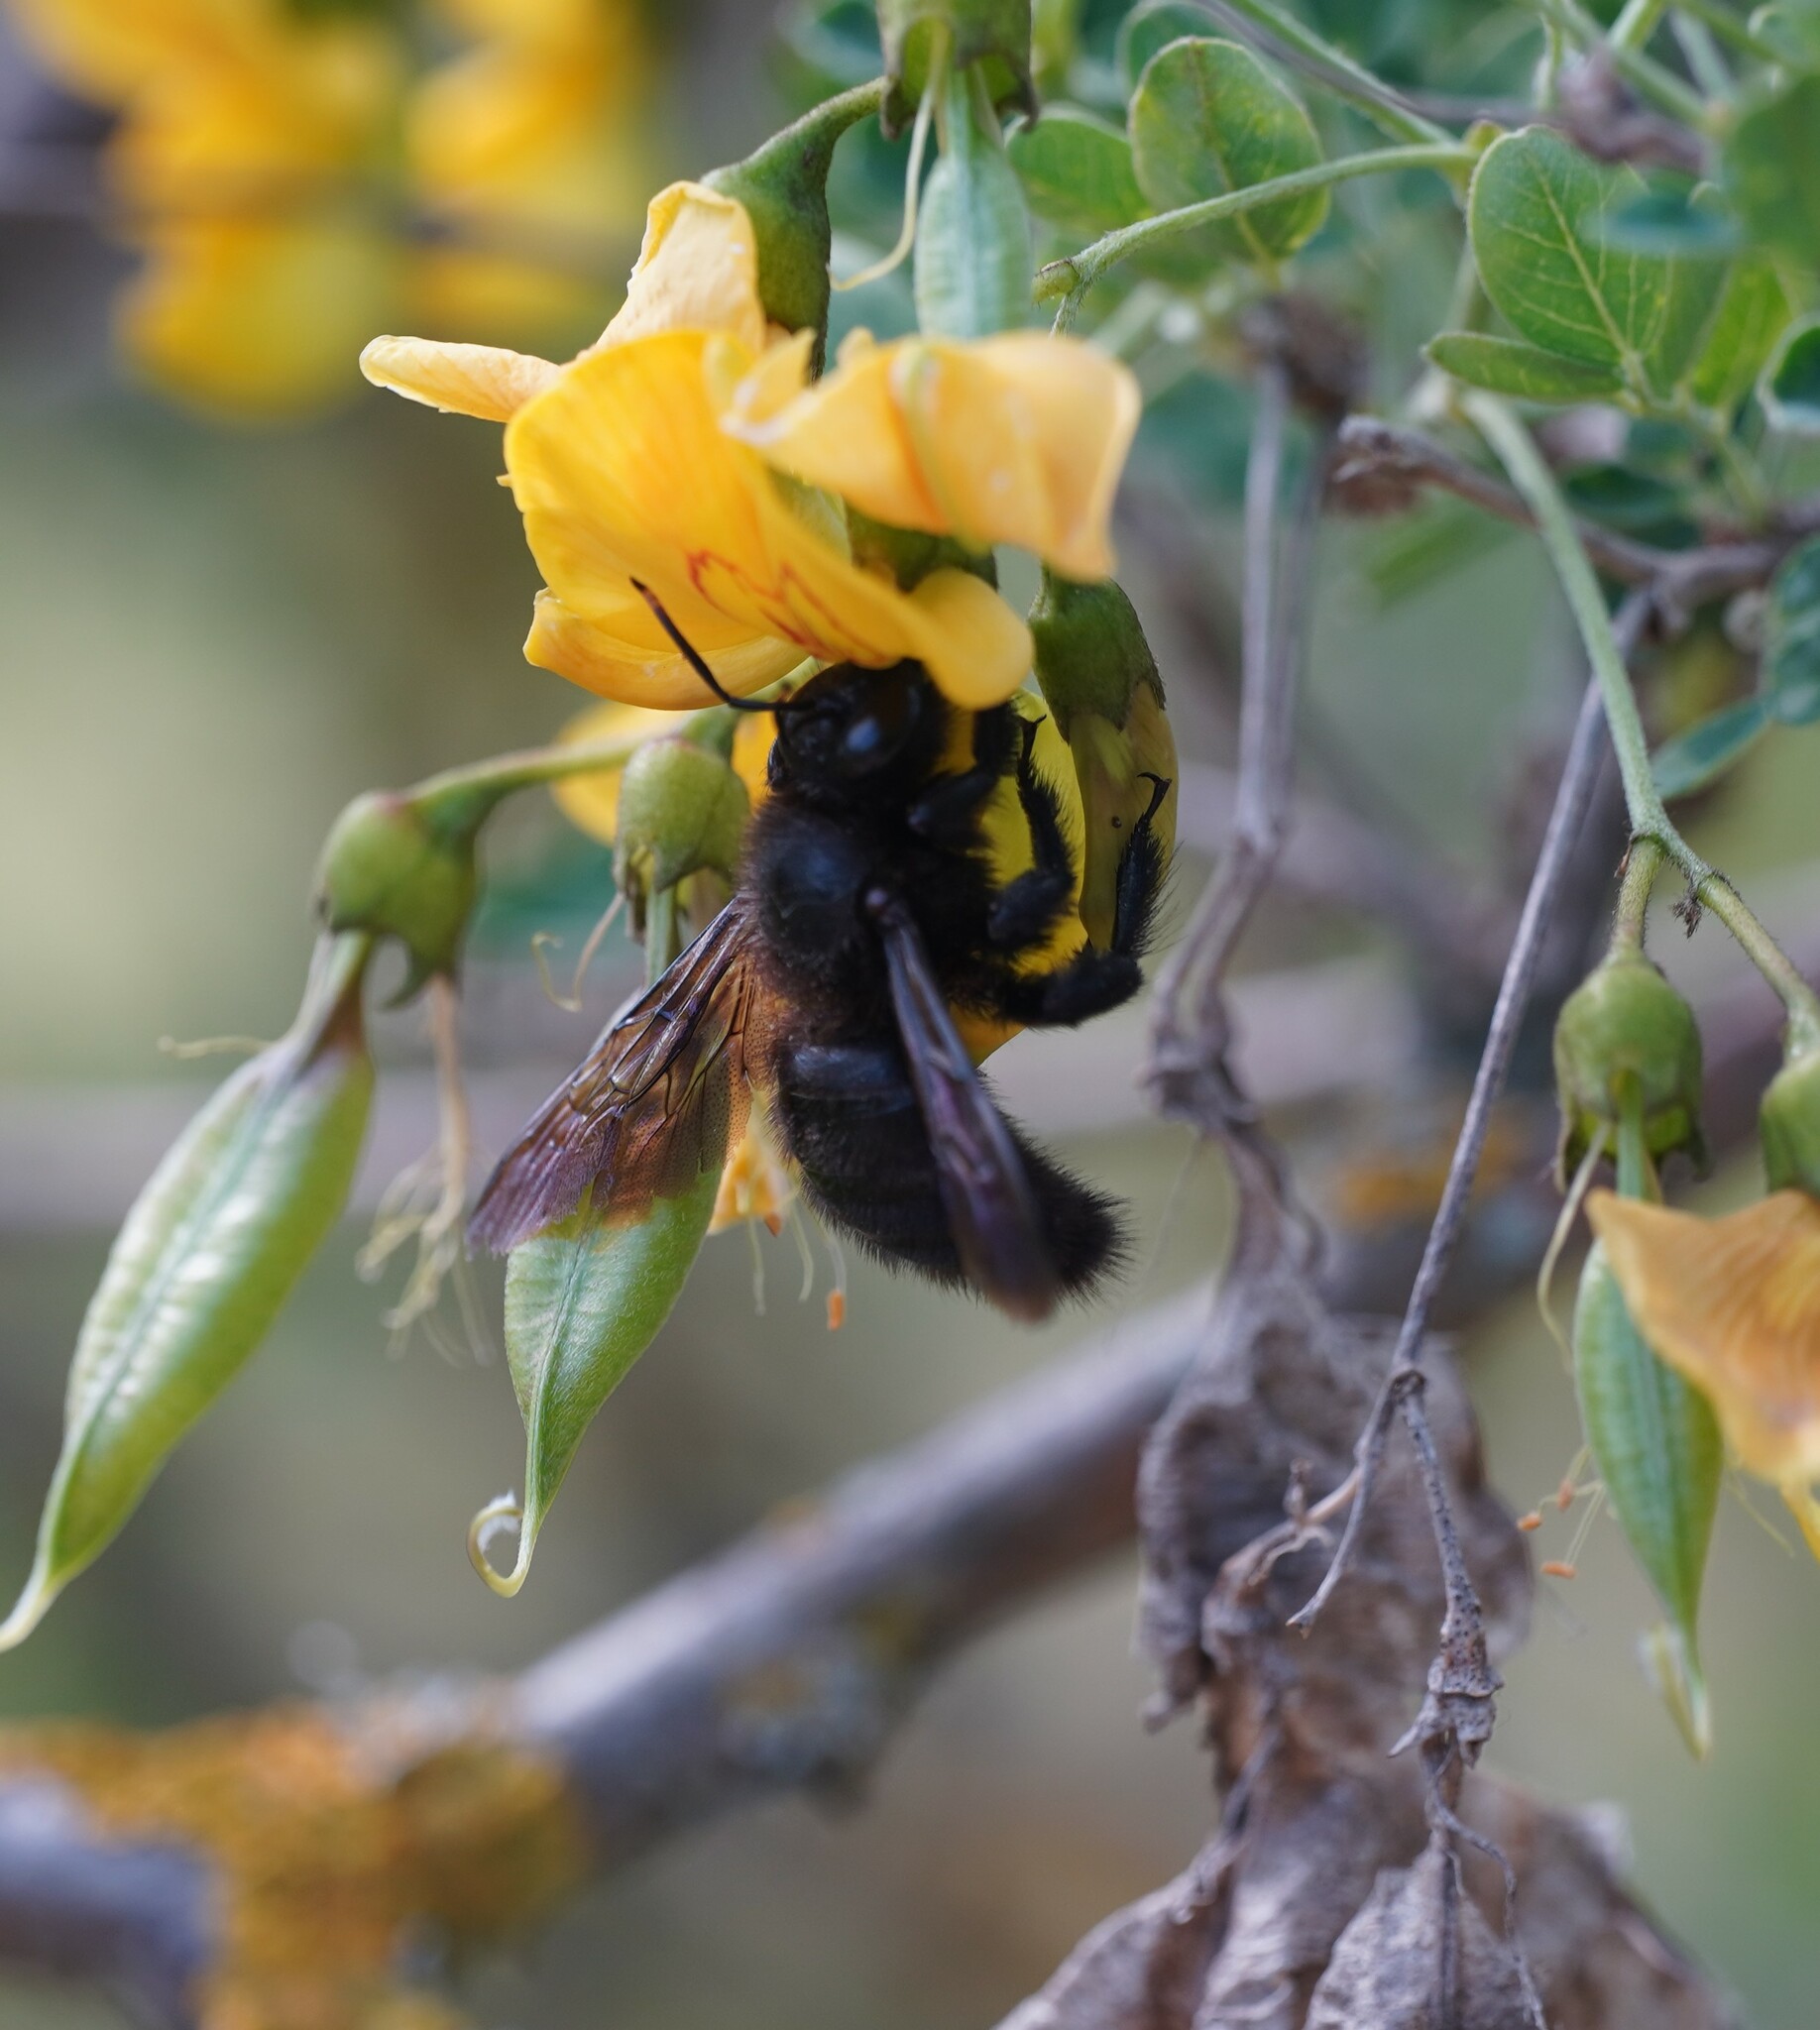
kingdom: Animalia
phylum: Arthropoda
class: Insecta
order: Hymenoptera
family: Apidae
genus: Xylocopa
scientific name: Xylocopa violacea
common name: Violet carpenter bee
